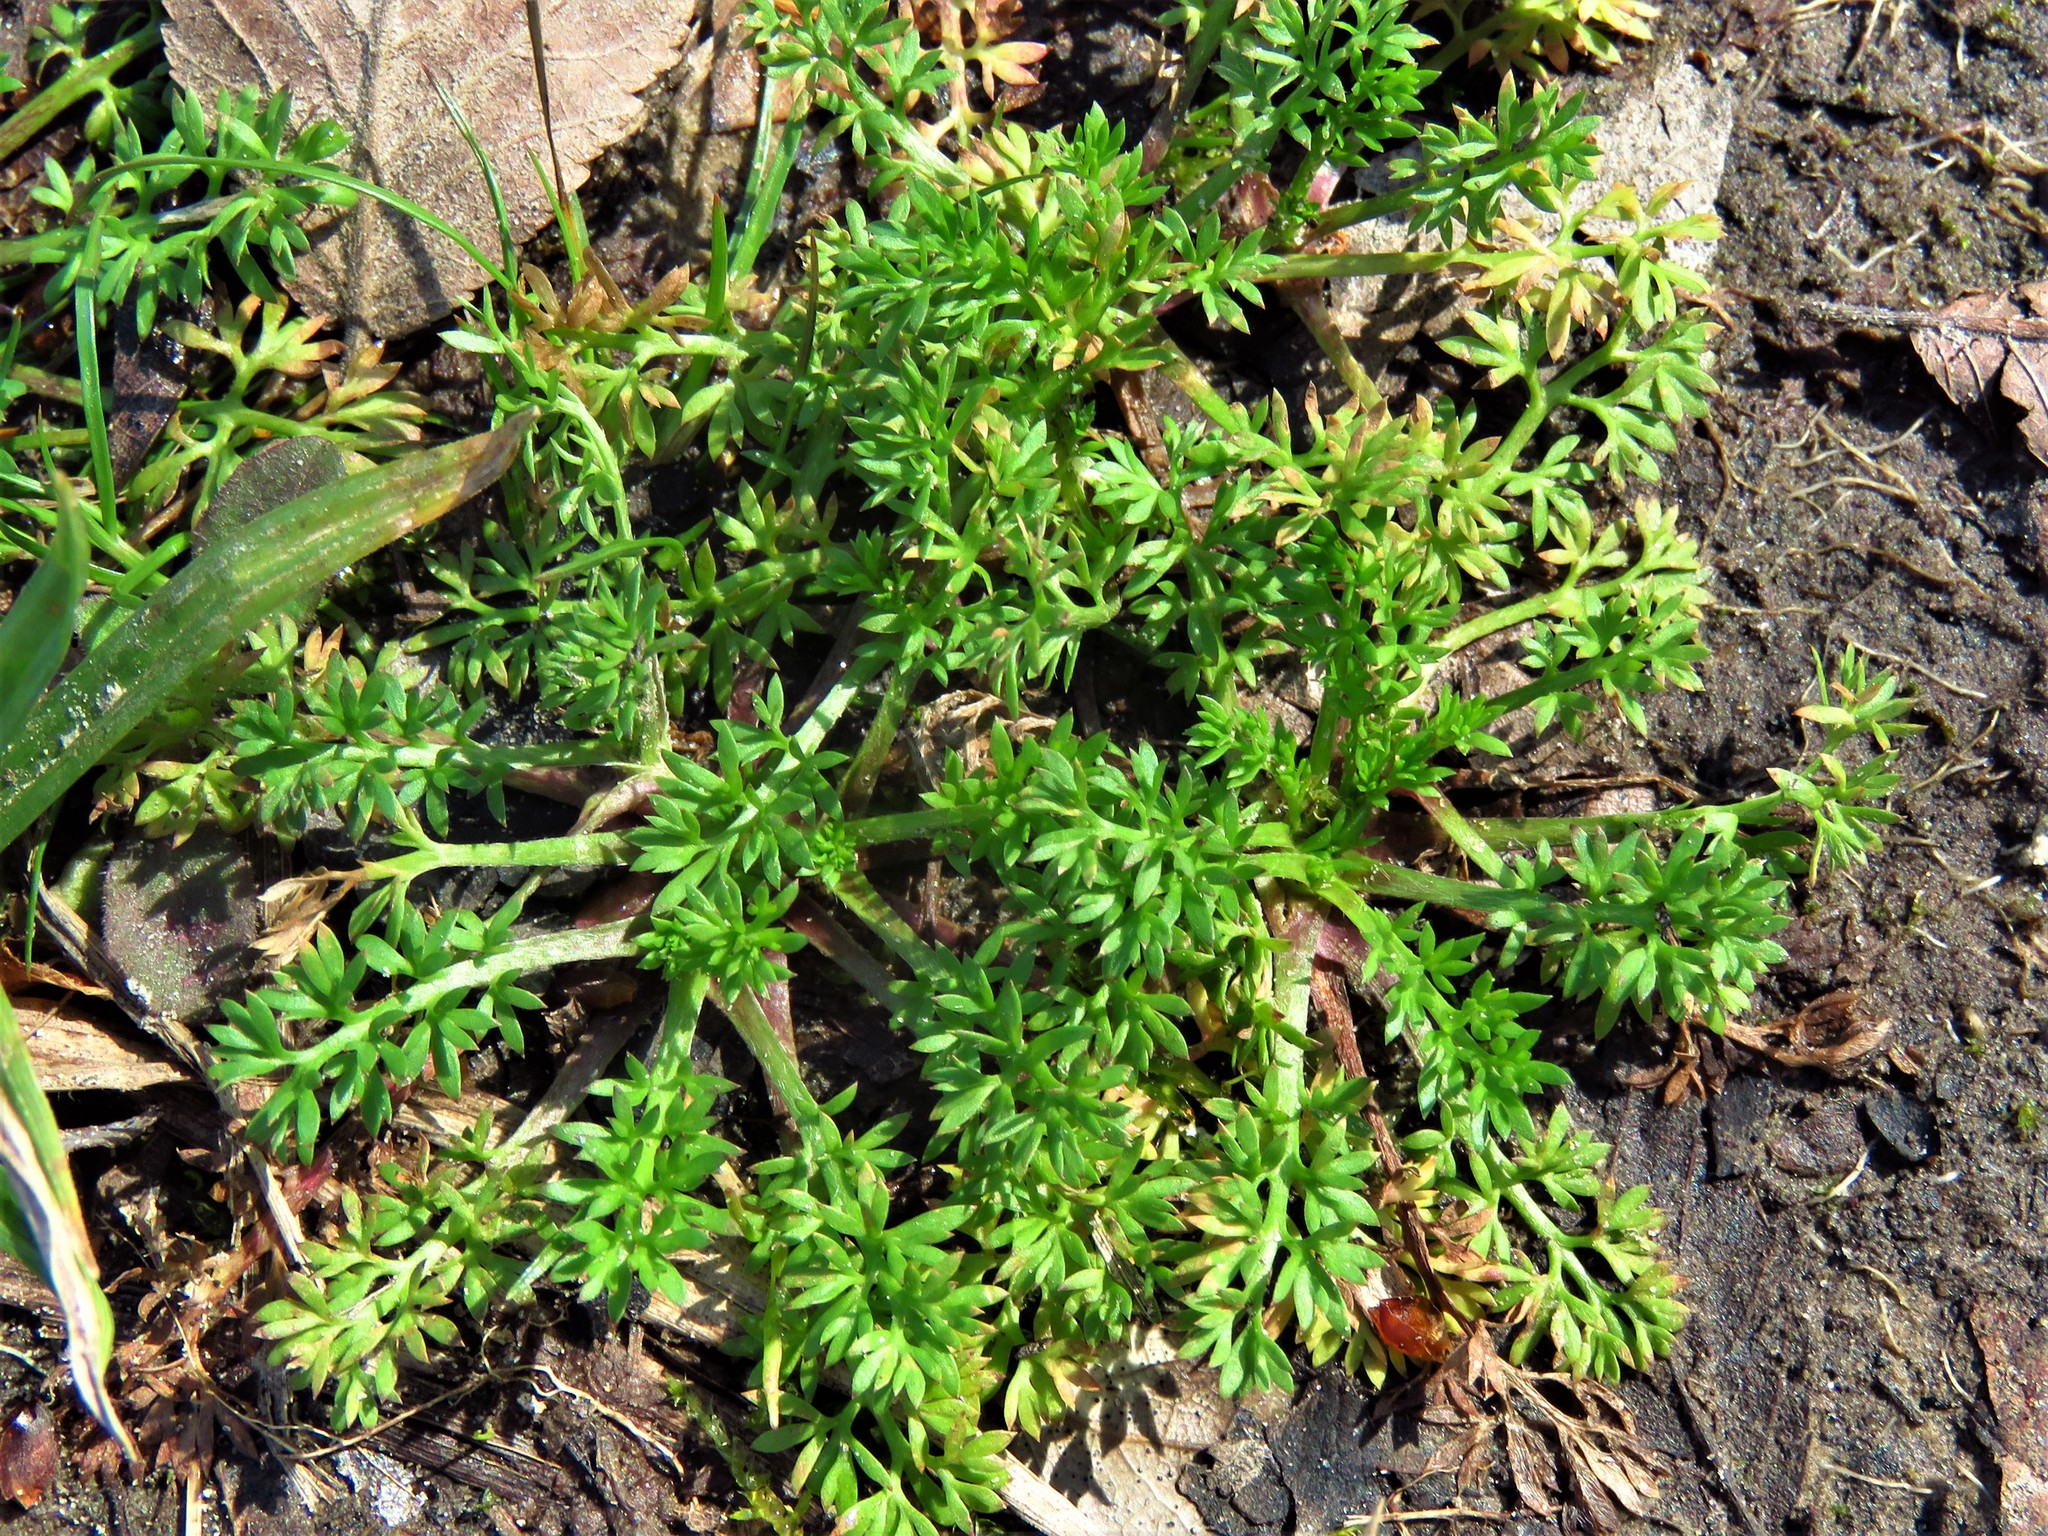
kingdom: Plantae
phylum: Tracheophyta
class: Magnoliopsida
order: Asterales
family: Asteraceae
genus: Soliva
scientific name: Soliva sessilis
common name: Field burrweed
